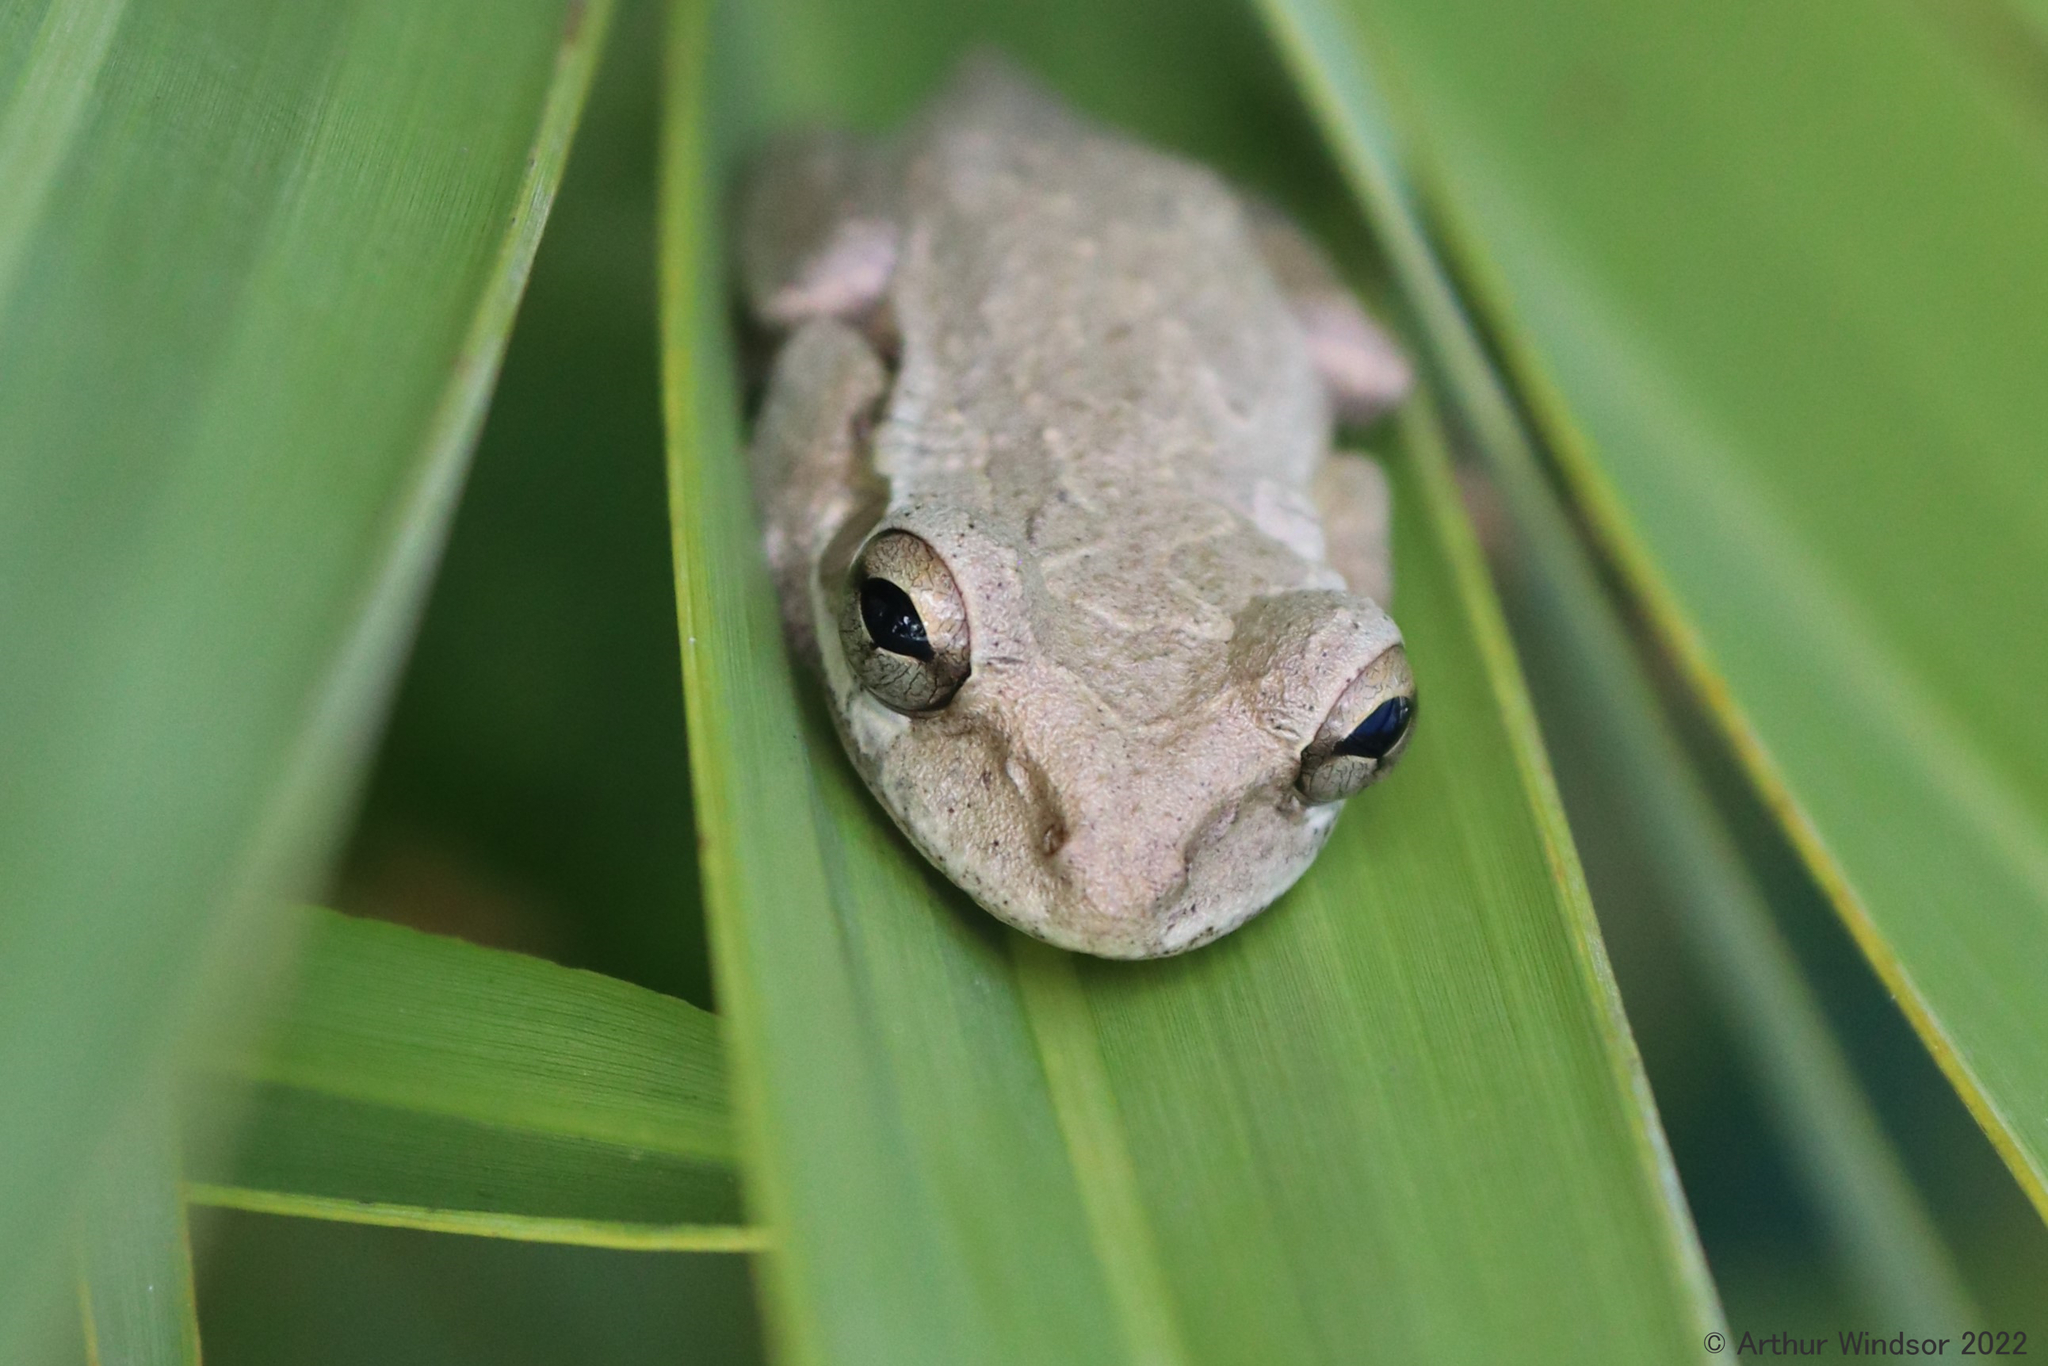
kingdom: Animalia
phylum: Chordata
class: Amphibia
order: Anura
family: Hylidae
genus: Osteopilus
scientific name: Osteopilus septentrionalis
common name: Cuban treefrog
